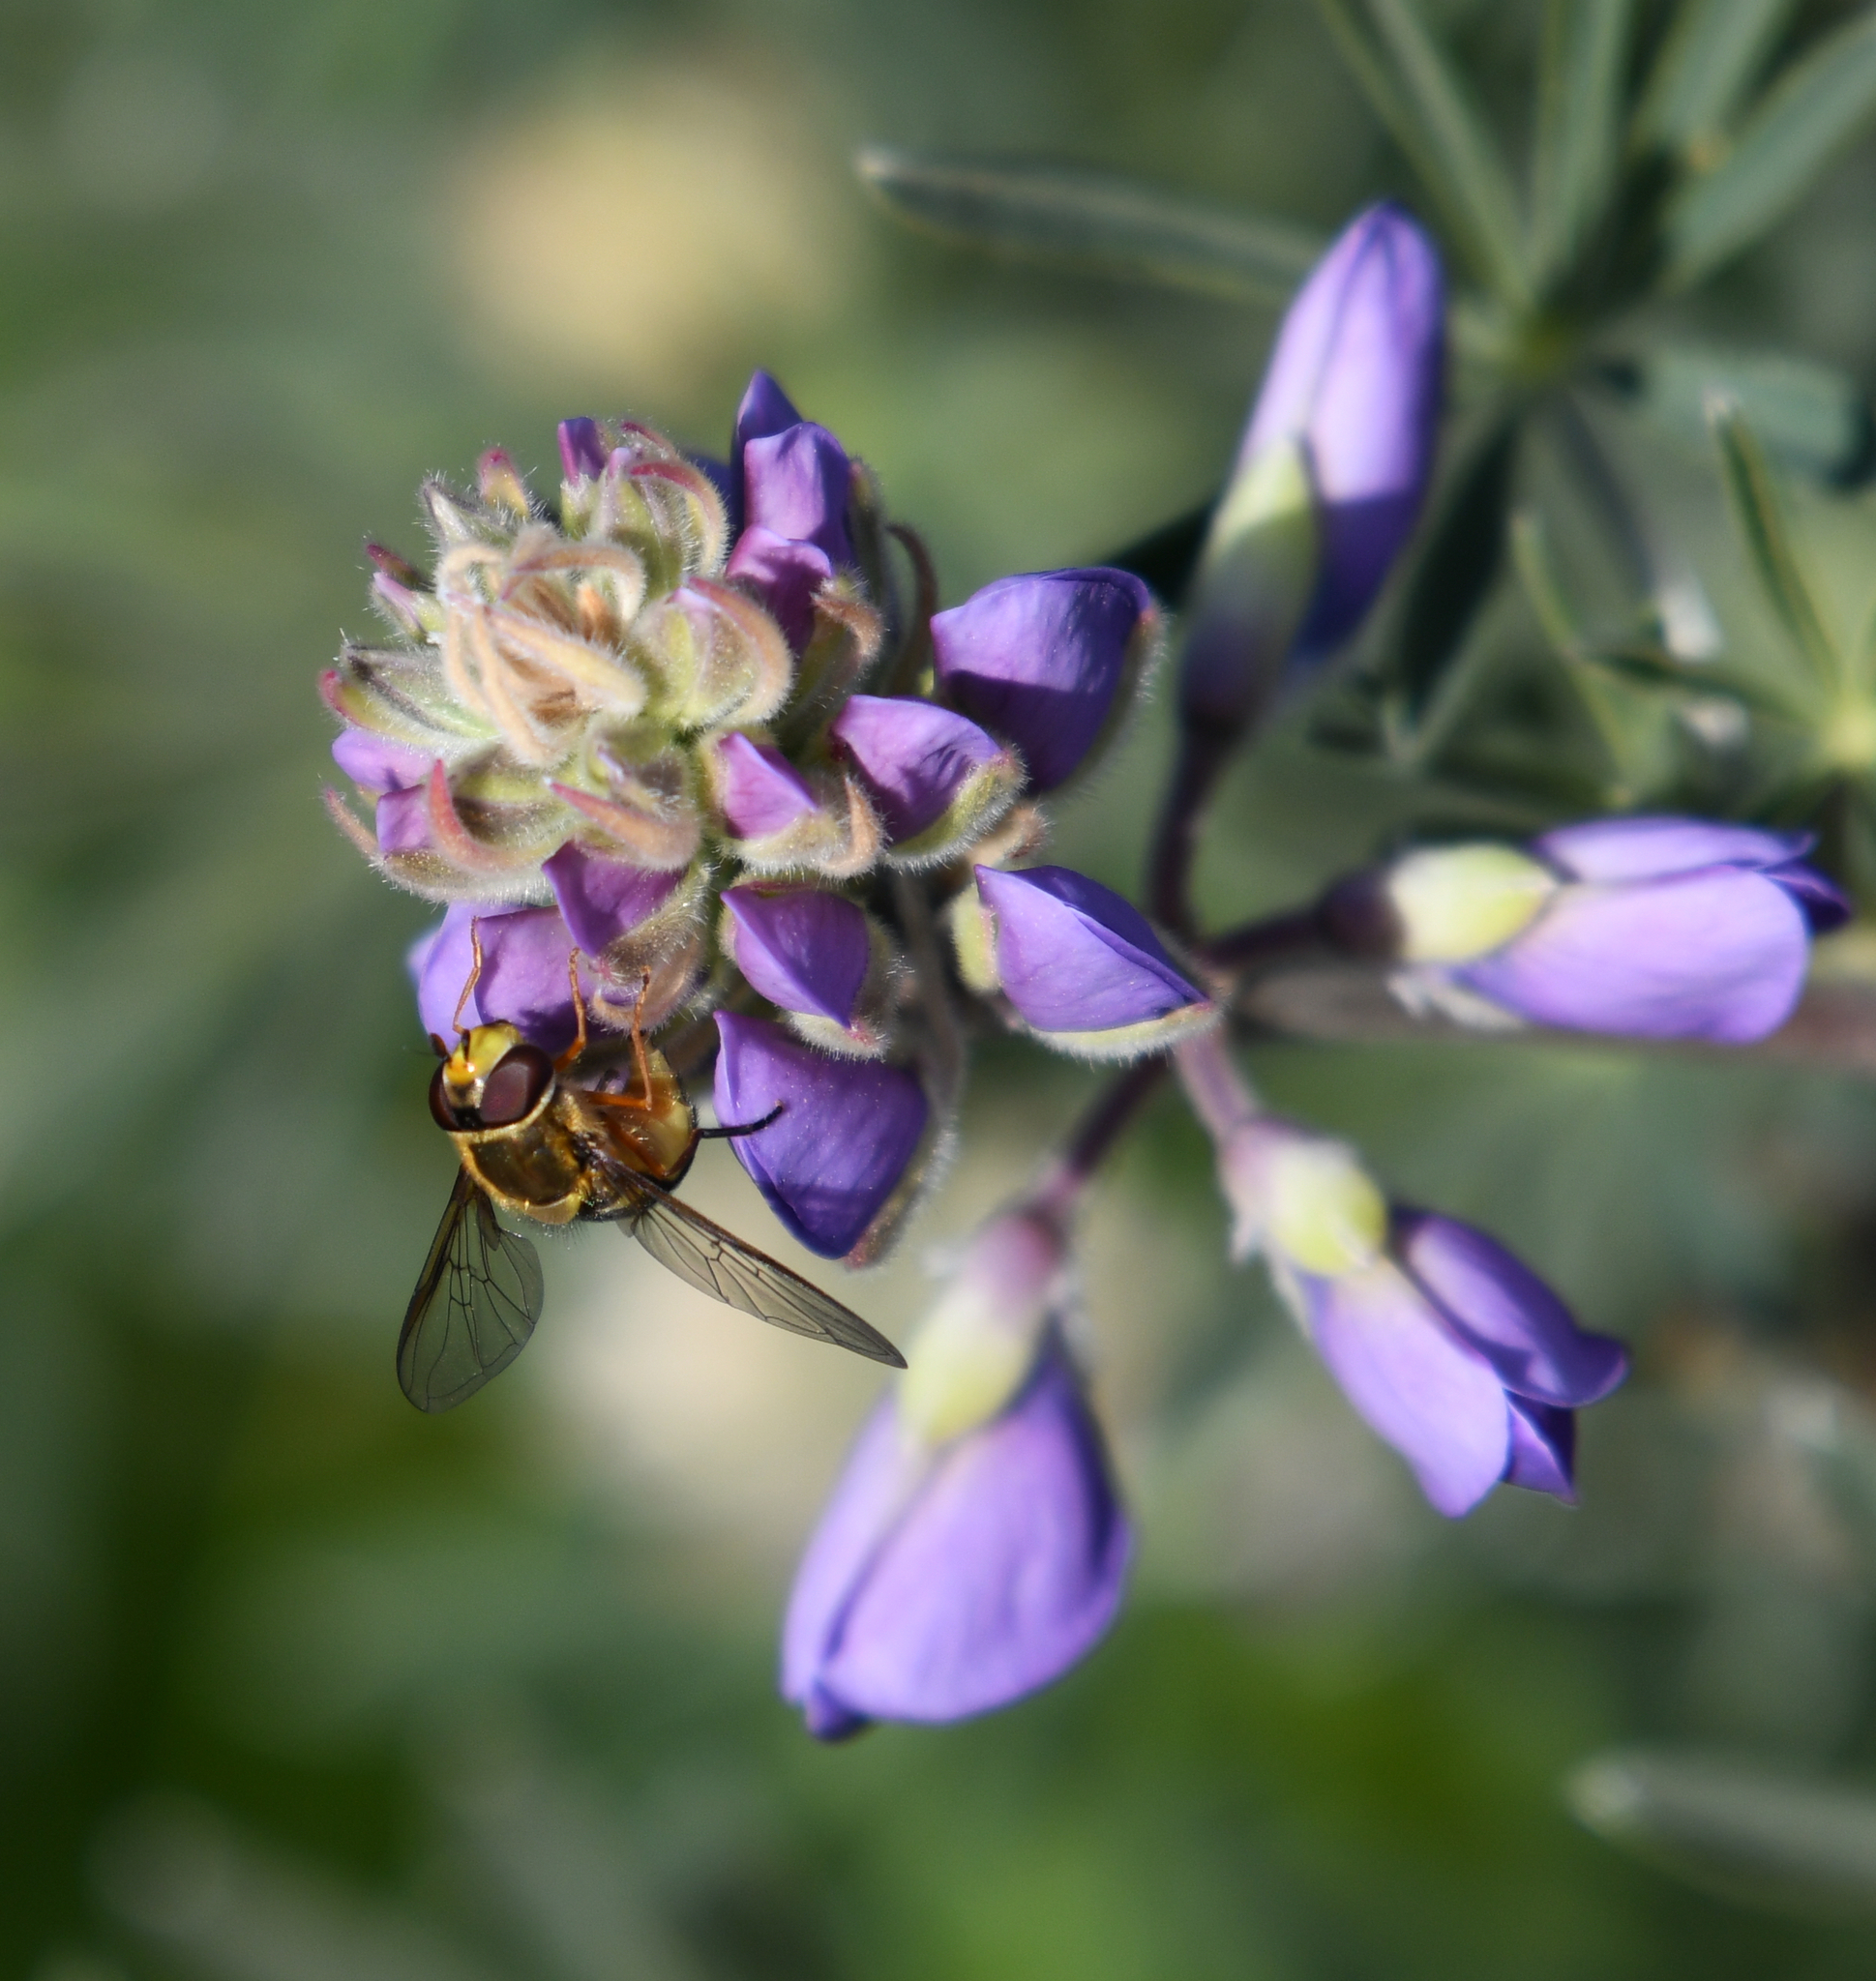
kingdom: Animalia
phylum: Arthropoda
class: Insecta
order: Diptera
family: Syrphidae
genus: Syrphus
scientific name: Syrphus opinator
